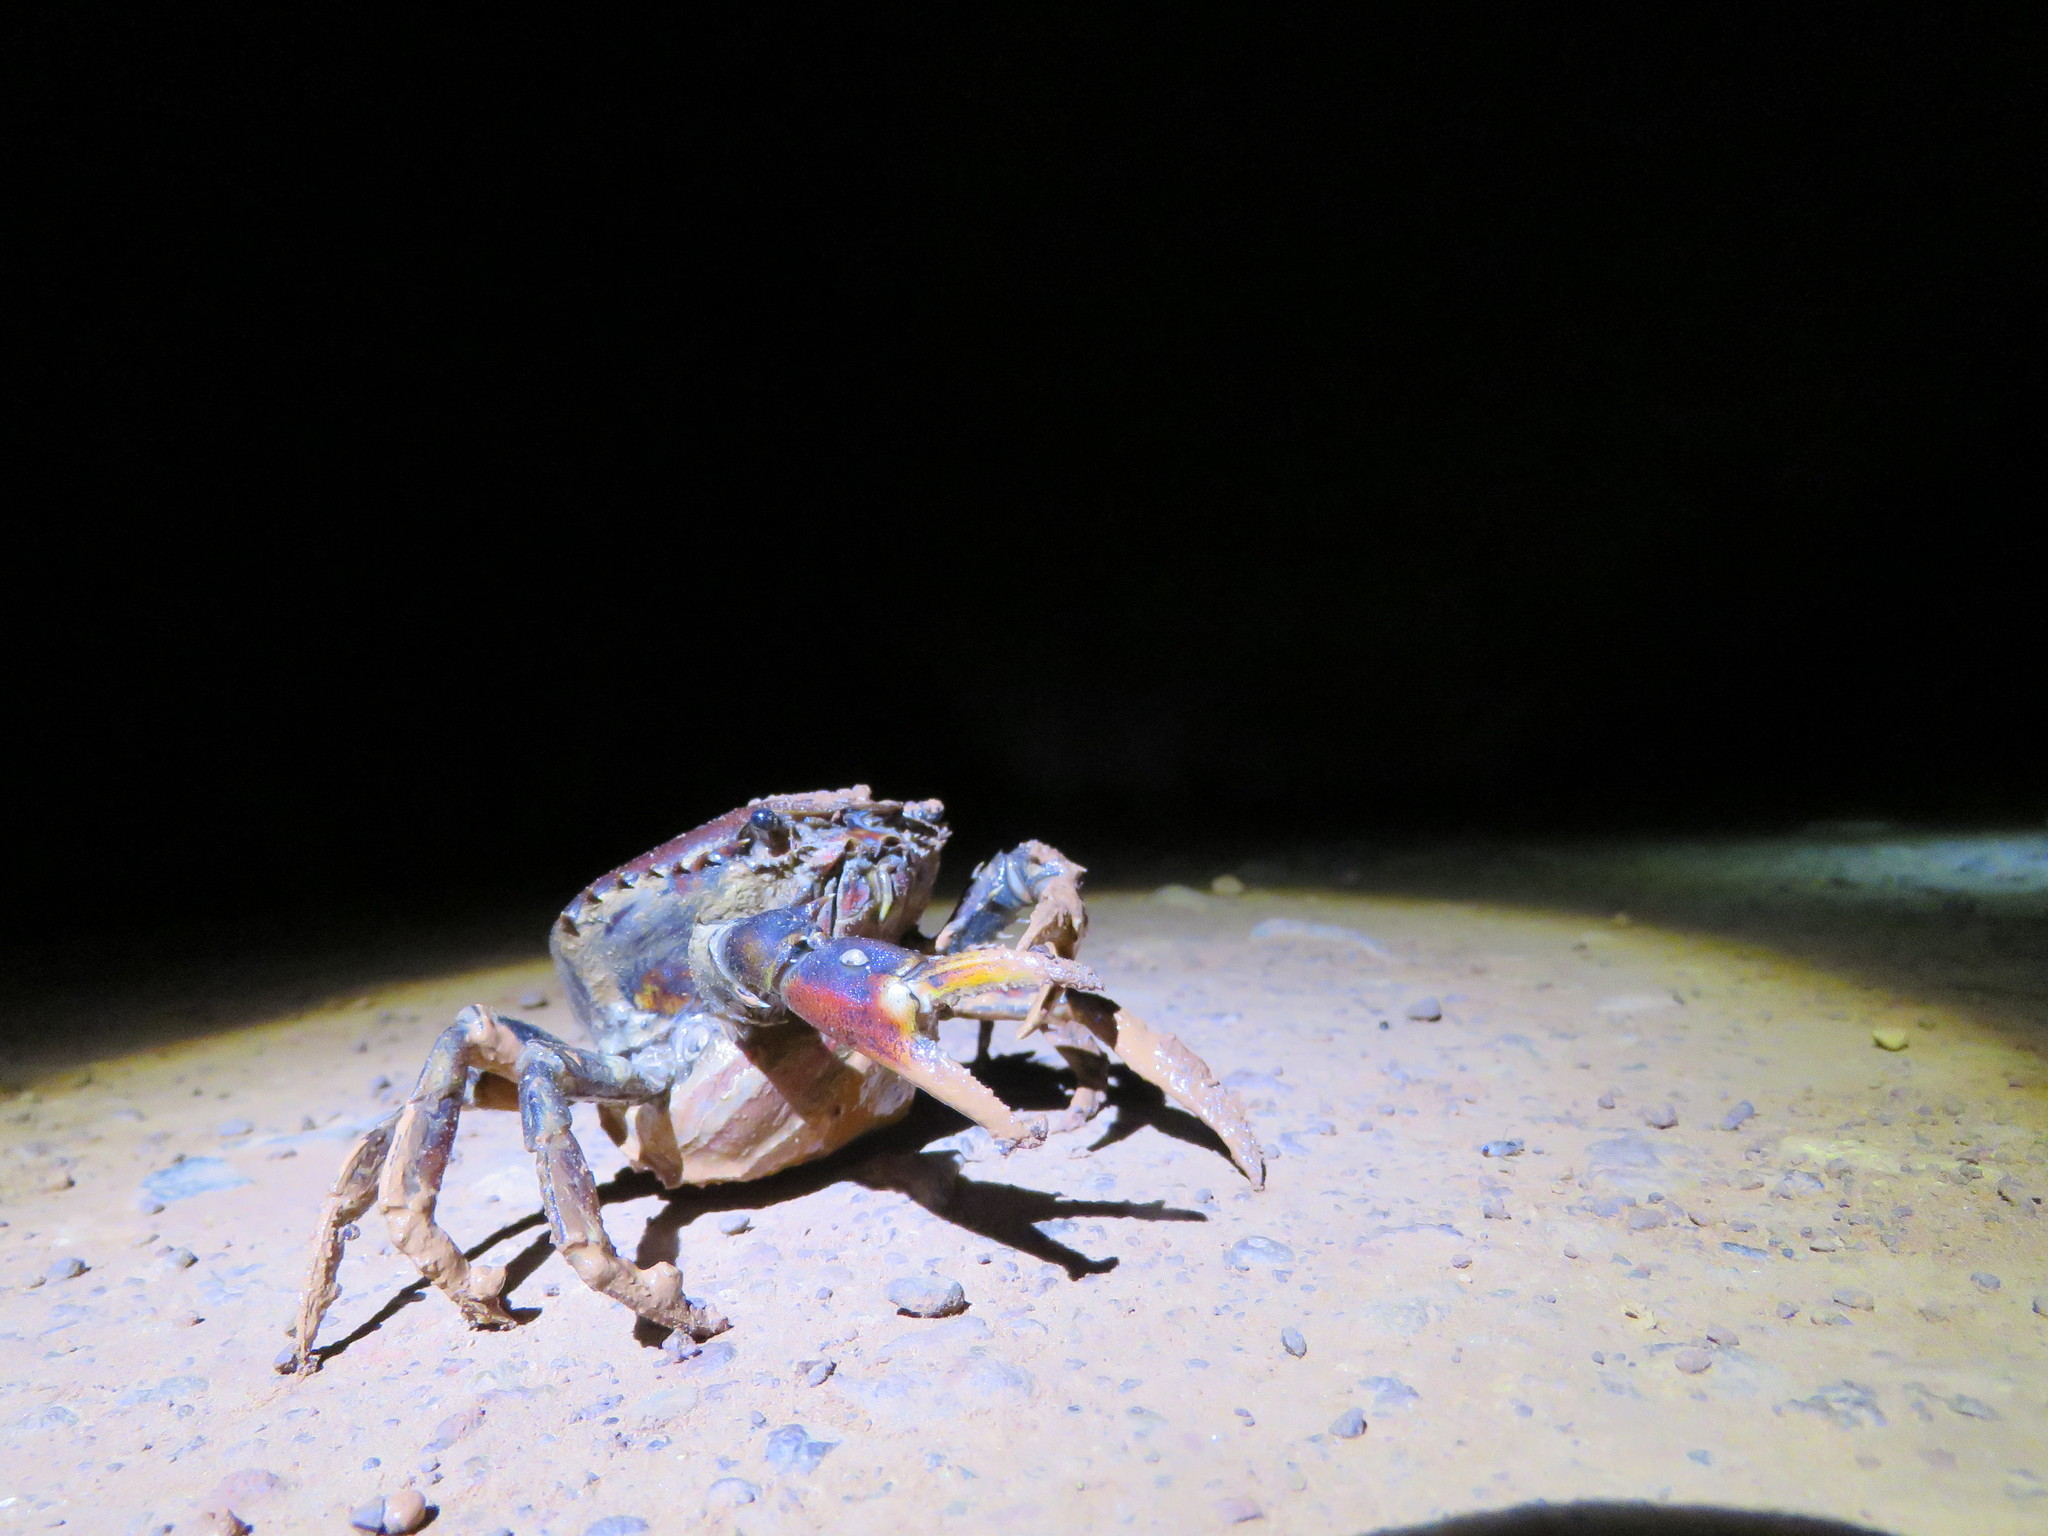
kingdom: Animalia
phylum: Arthropoda
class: Malacostraca
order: Decapoda
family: Trichodactylidae
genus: Dilocarcinus
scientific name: Dilocarcinus pagei
